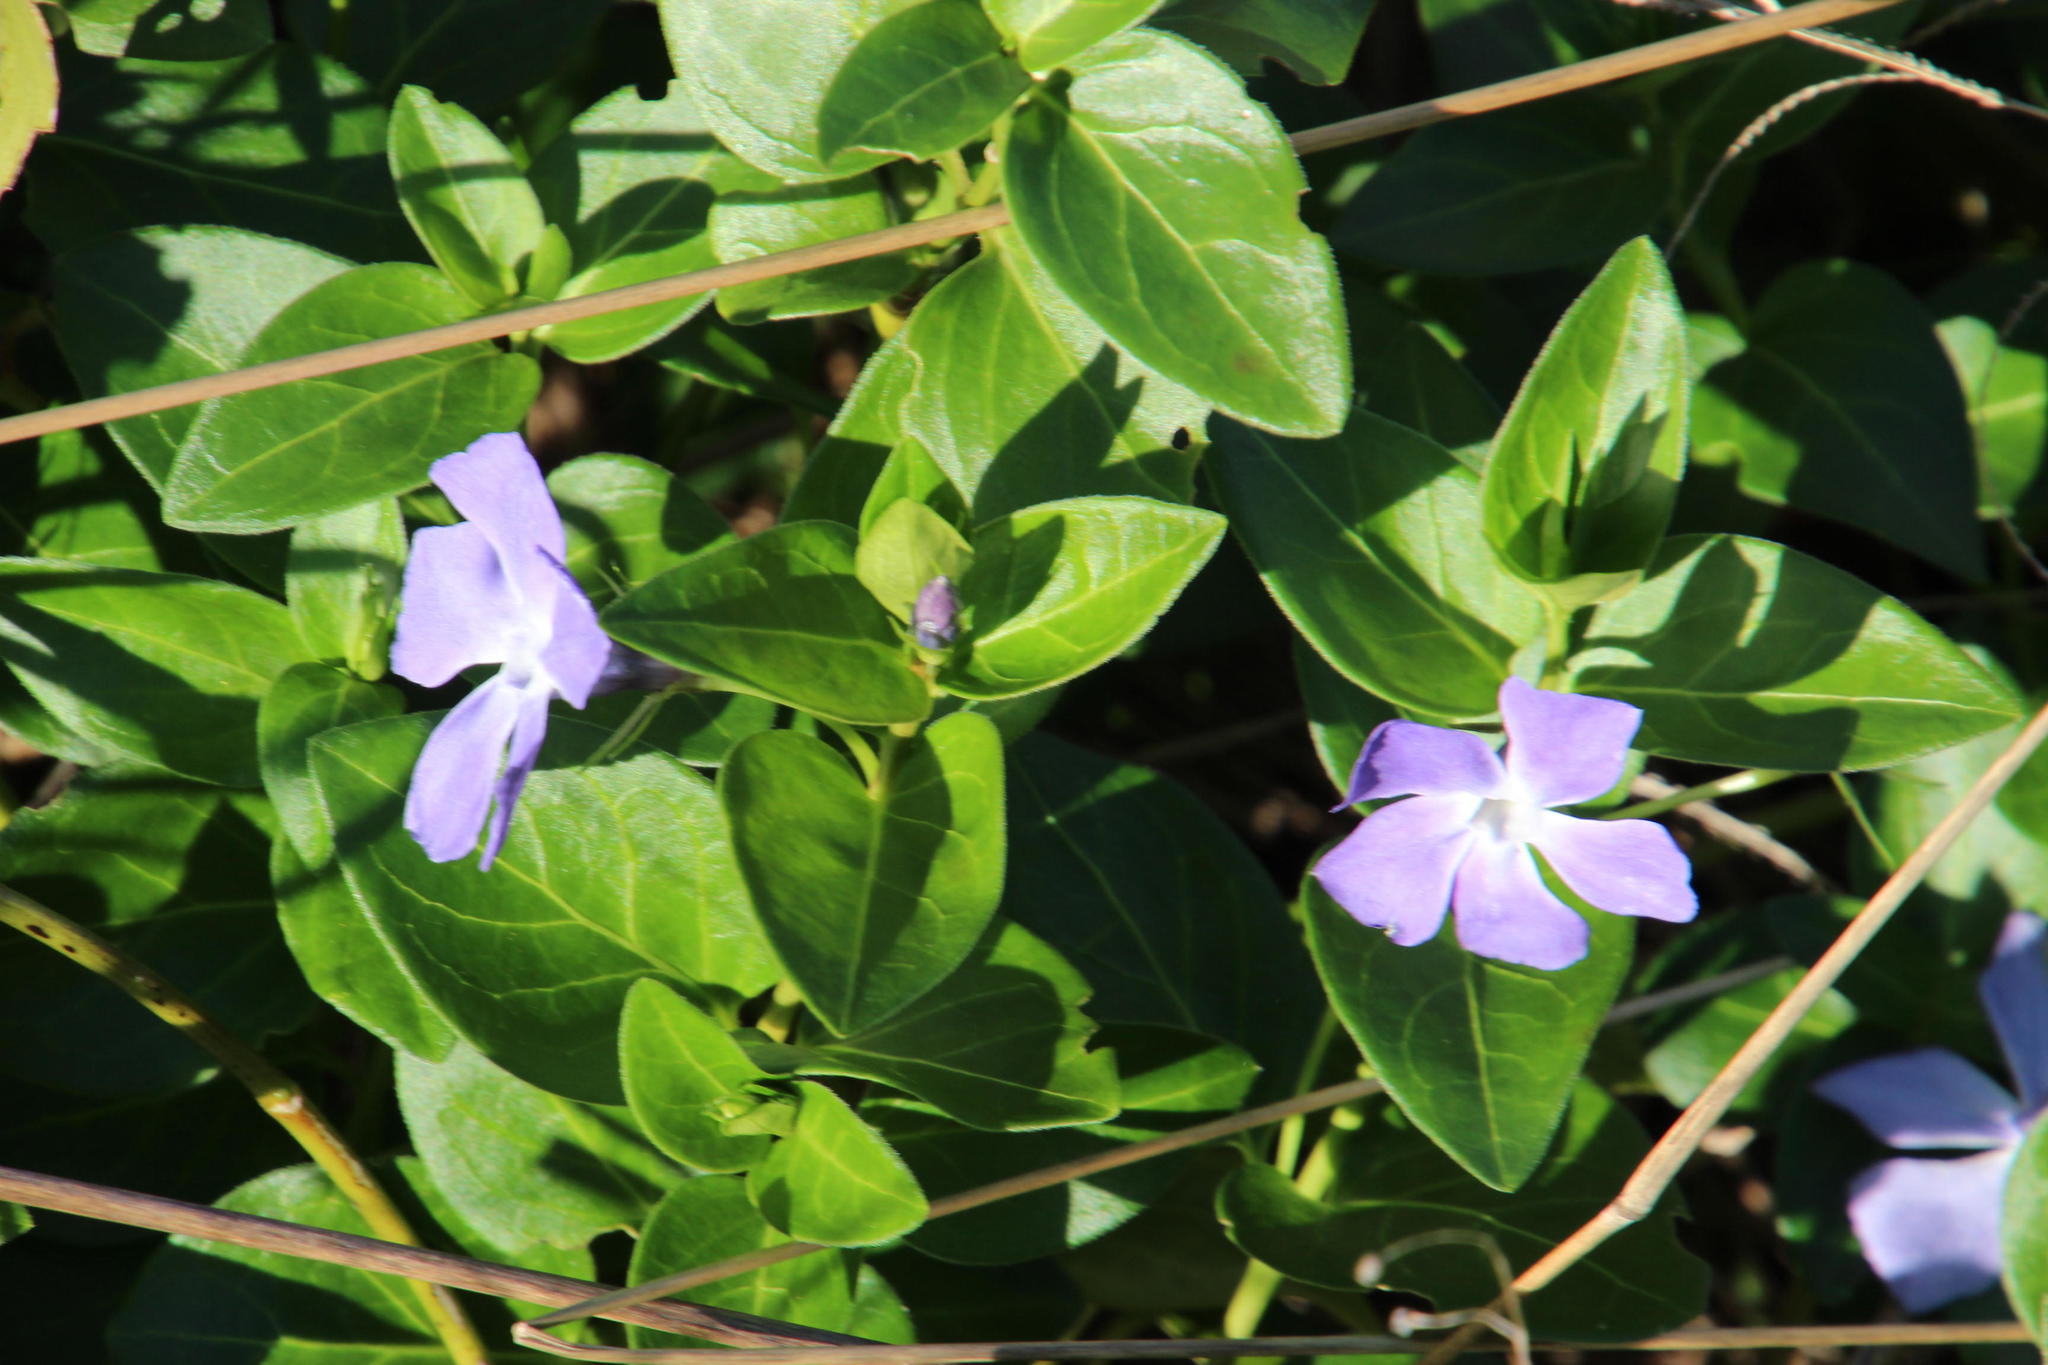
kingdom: Plantae
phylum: Tracheophyta
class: Magnoliopsida
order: Gentianales
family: Apocynaceae
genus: Vinca
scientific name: Vinca major
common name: Greater periwinkle
